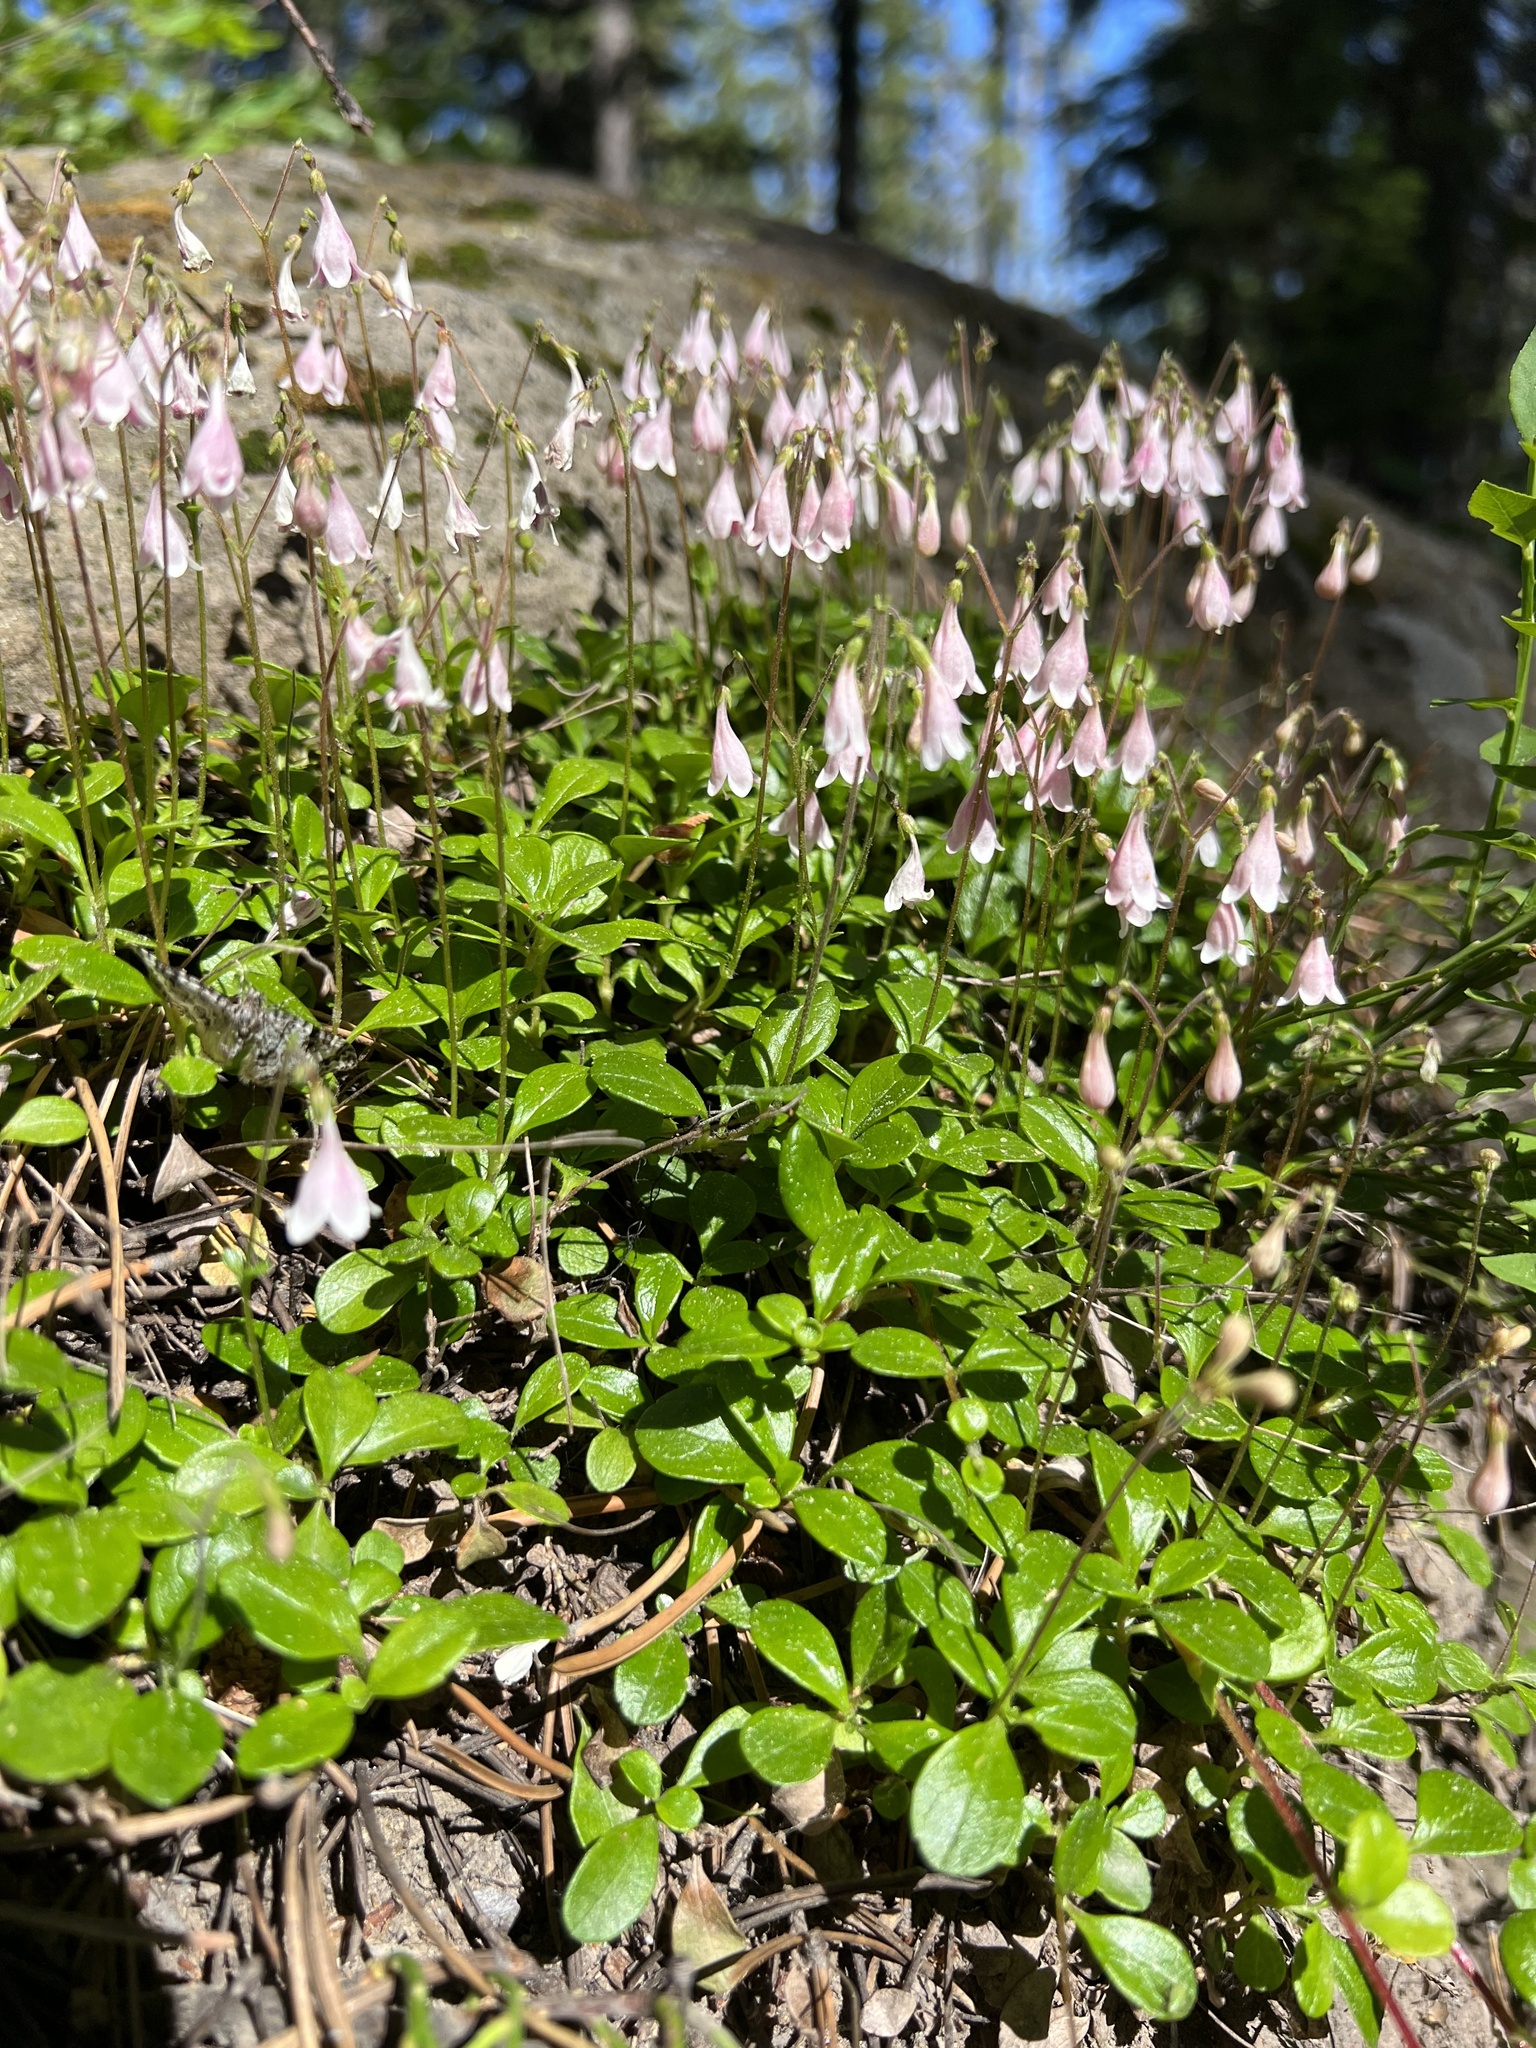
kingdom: Plantae
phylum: Tracheophyta
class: Magnoliopsida
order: Dipsacales
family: Caprifoliaceae
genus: Linnaea
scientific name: Linnaea borealis
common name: Twinflower
